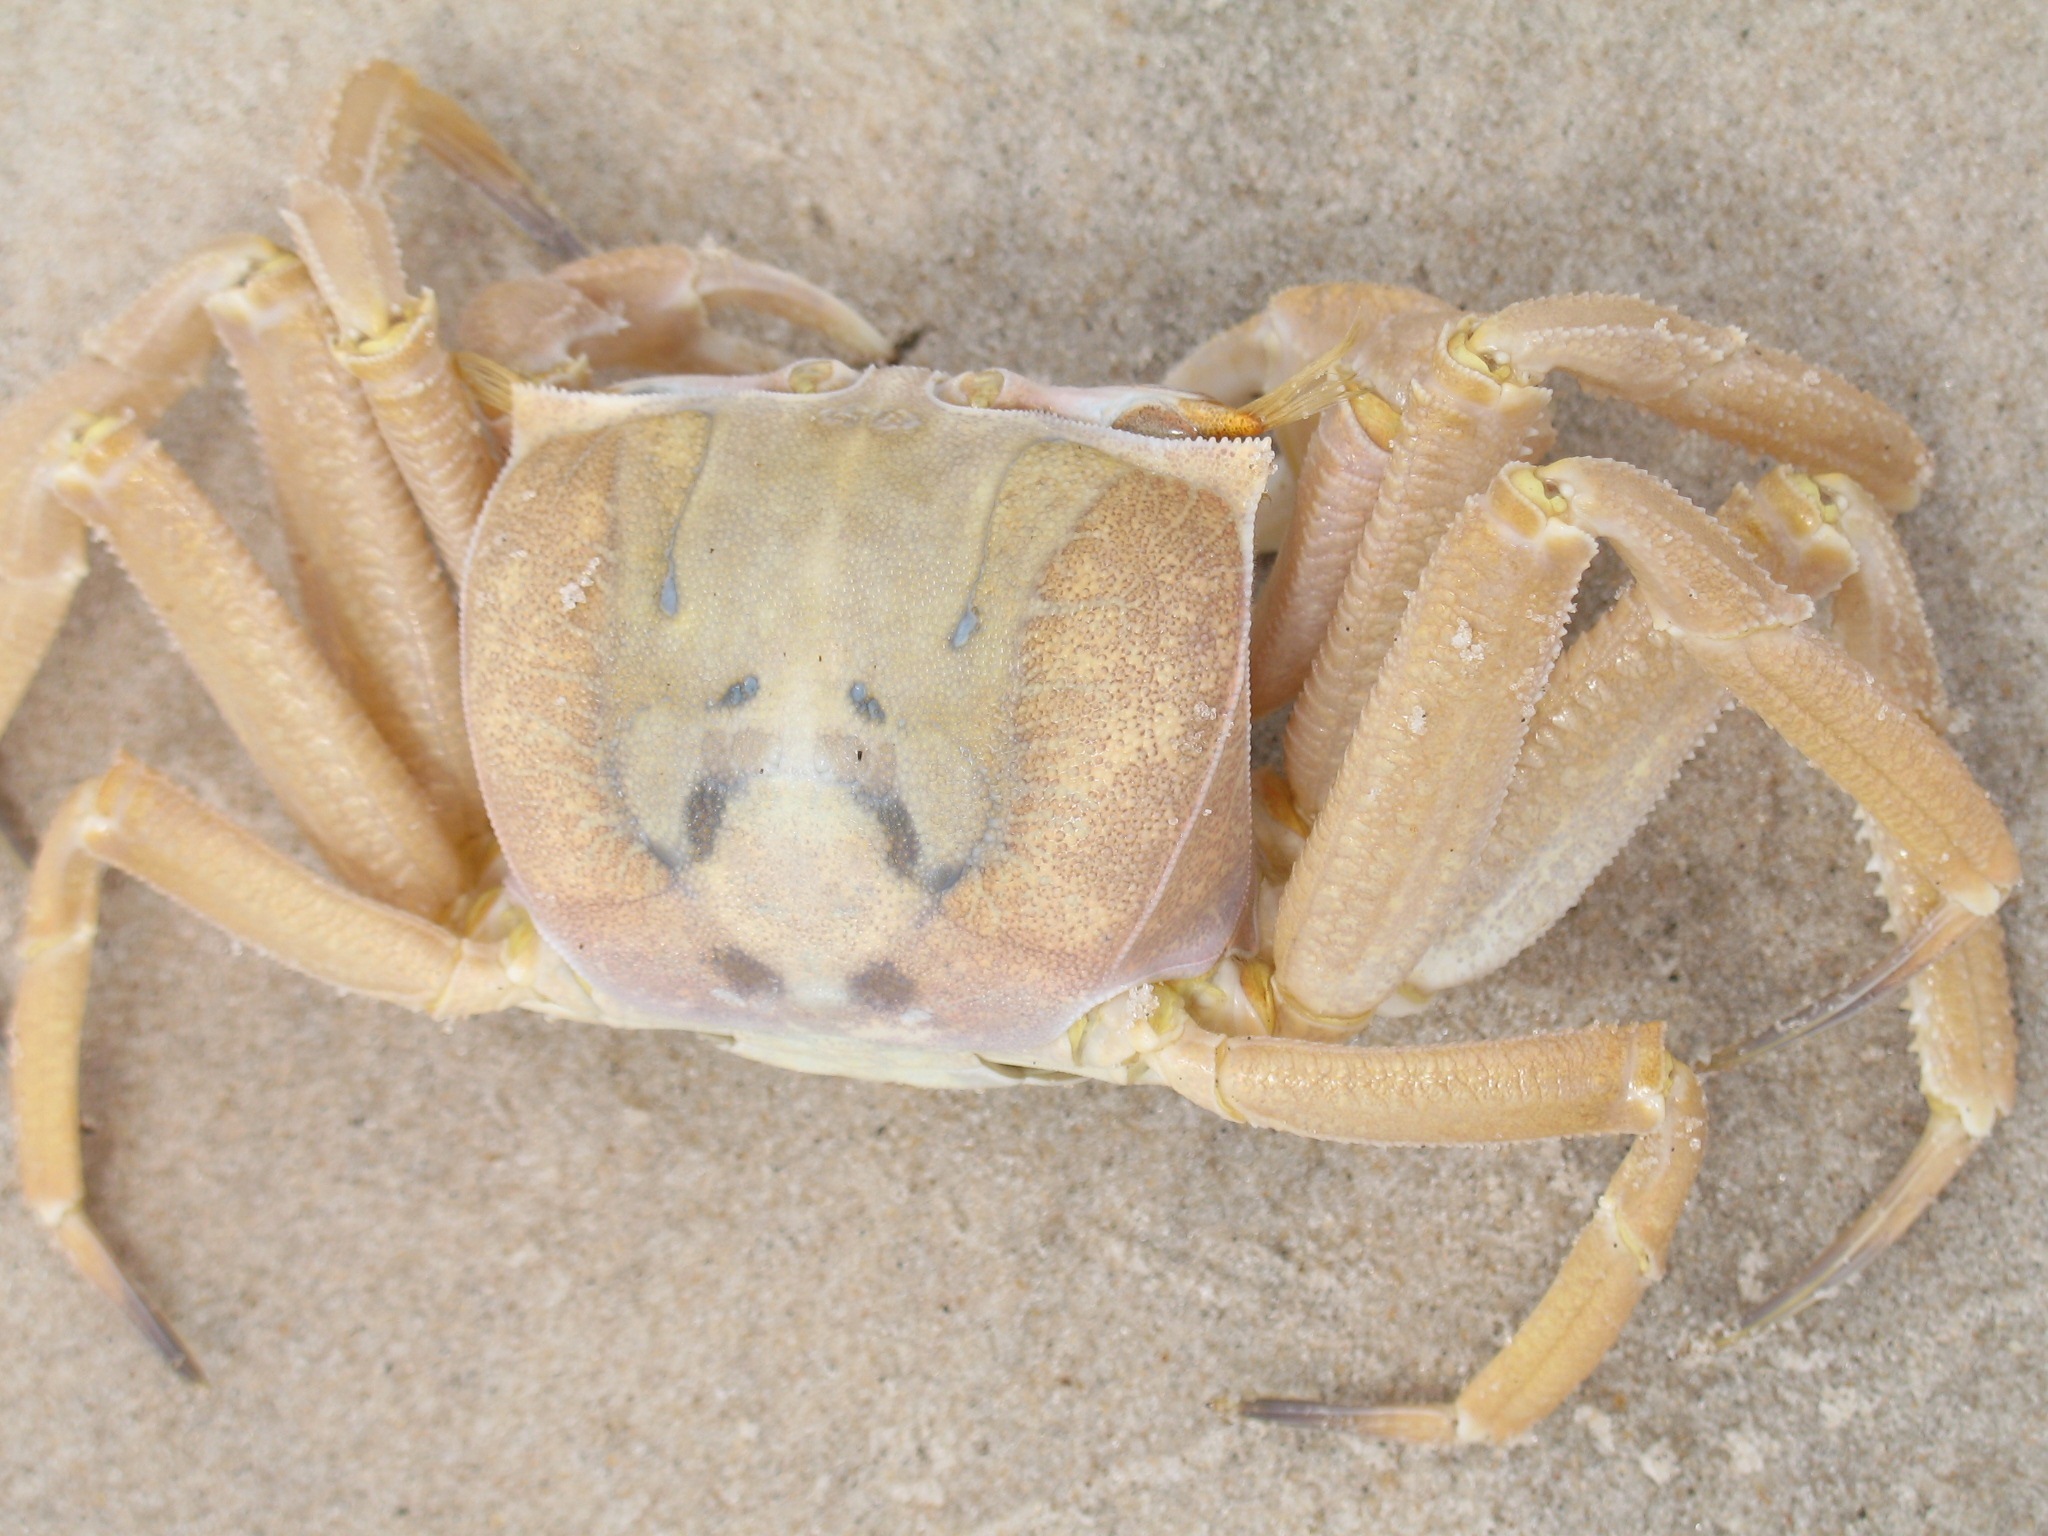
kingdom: Animalia
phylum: Arthropoda
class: Malacostraca
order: Decapoda
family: Ocypodidae
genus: Ocypode
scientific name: Ocypode cursor
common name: Tufted ghost crab
